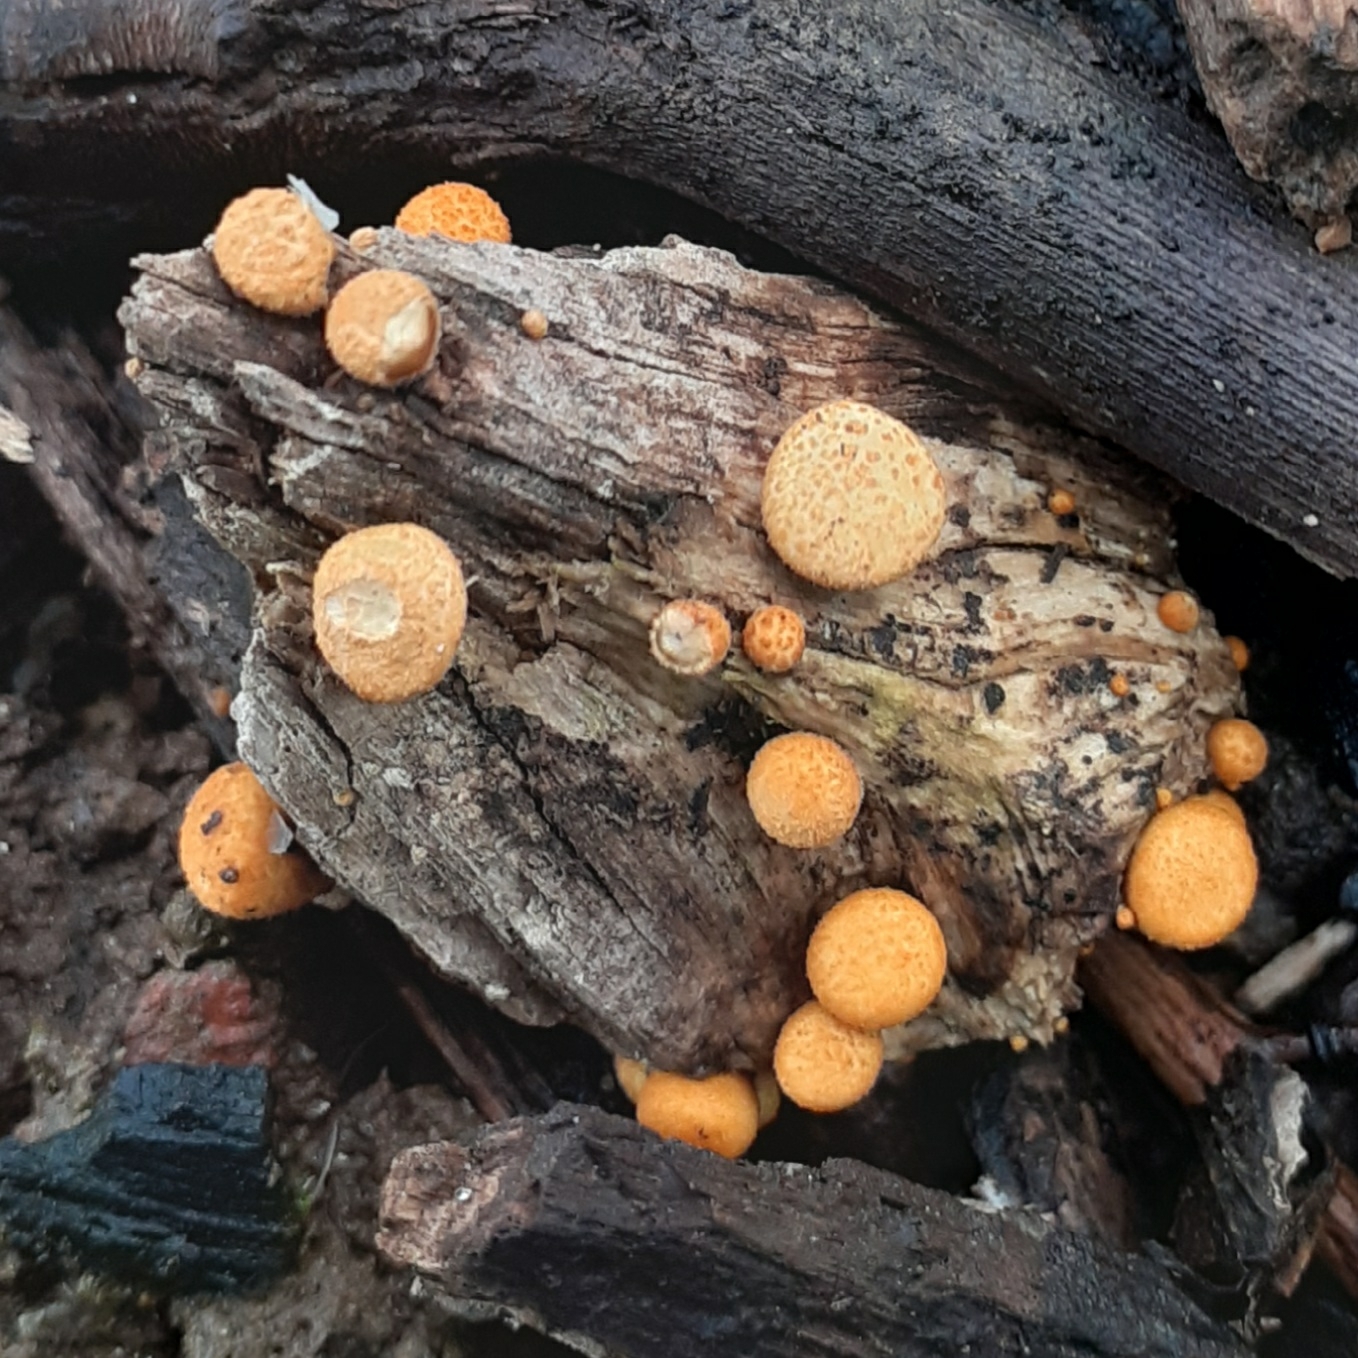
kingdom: Fungi
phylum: Basidiomycota
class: Agaricomycetes
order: Agaricales
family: Nidulariaceae
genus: Crucibulum
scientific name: Crucibulum laeve
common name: Common bird's nest
